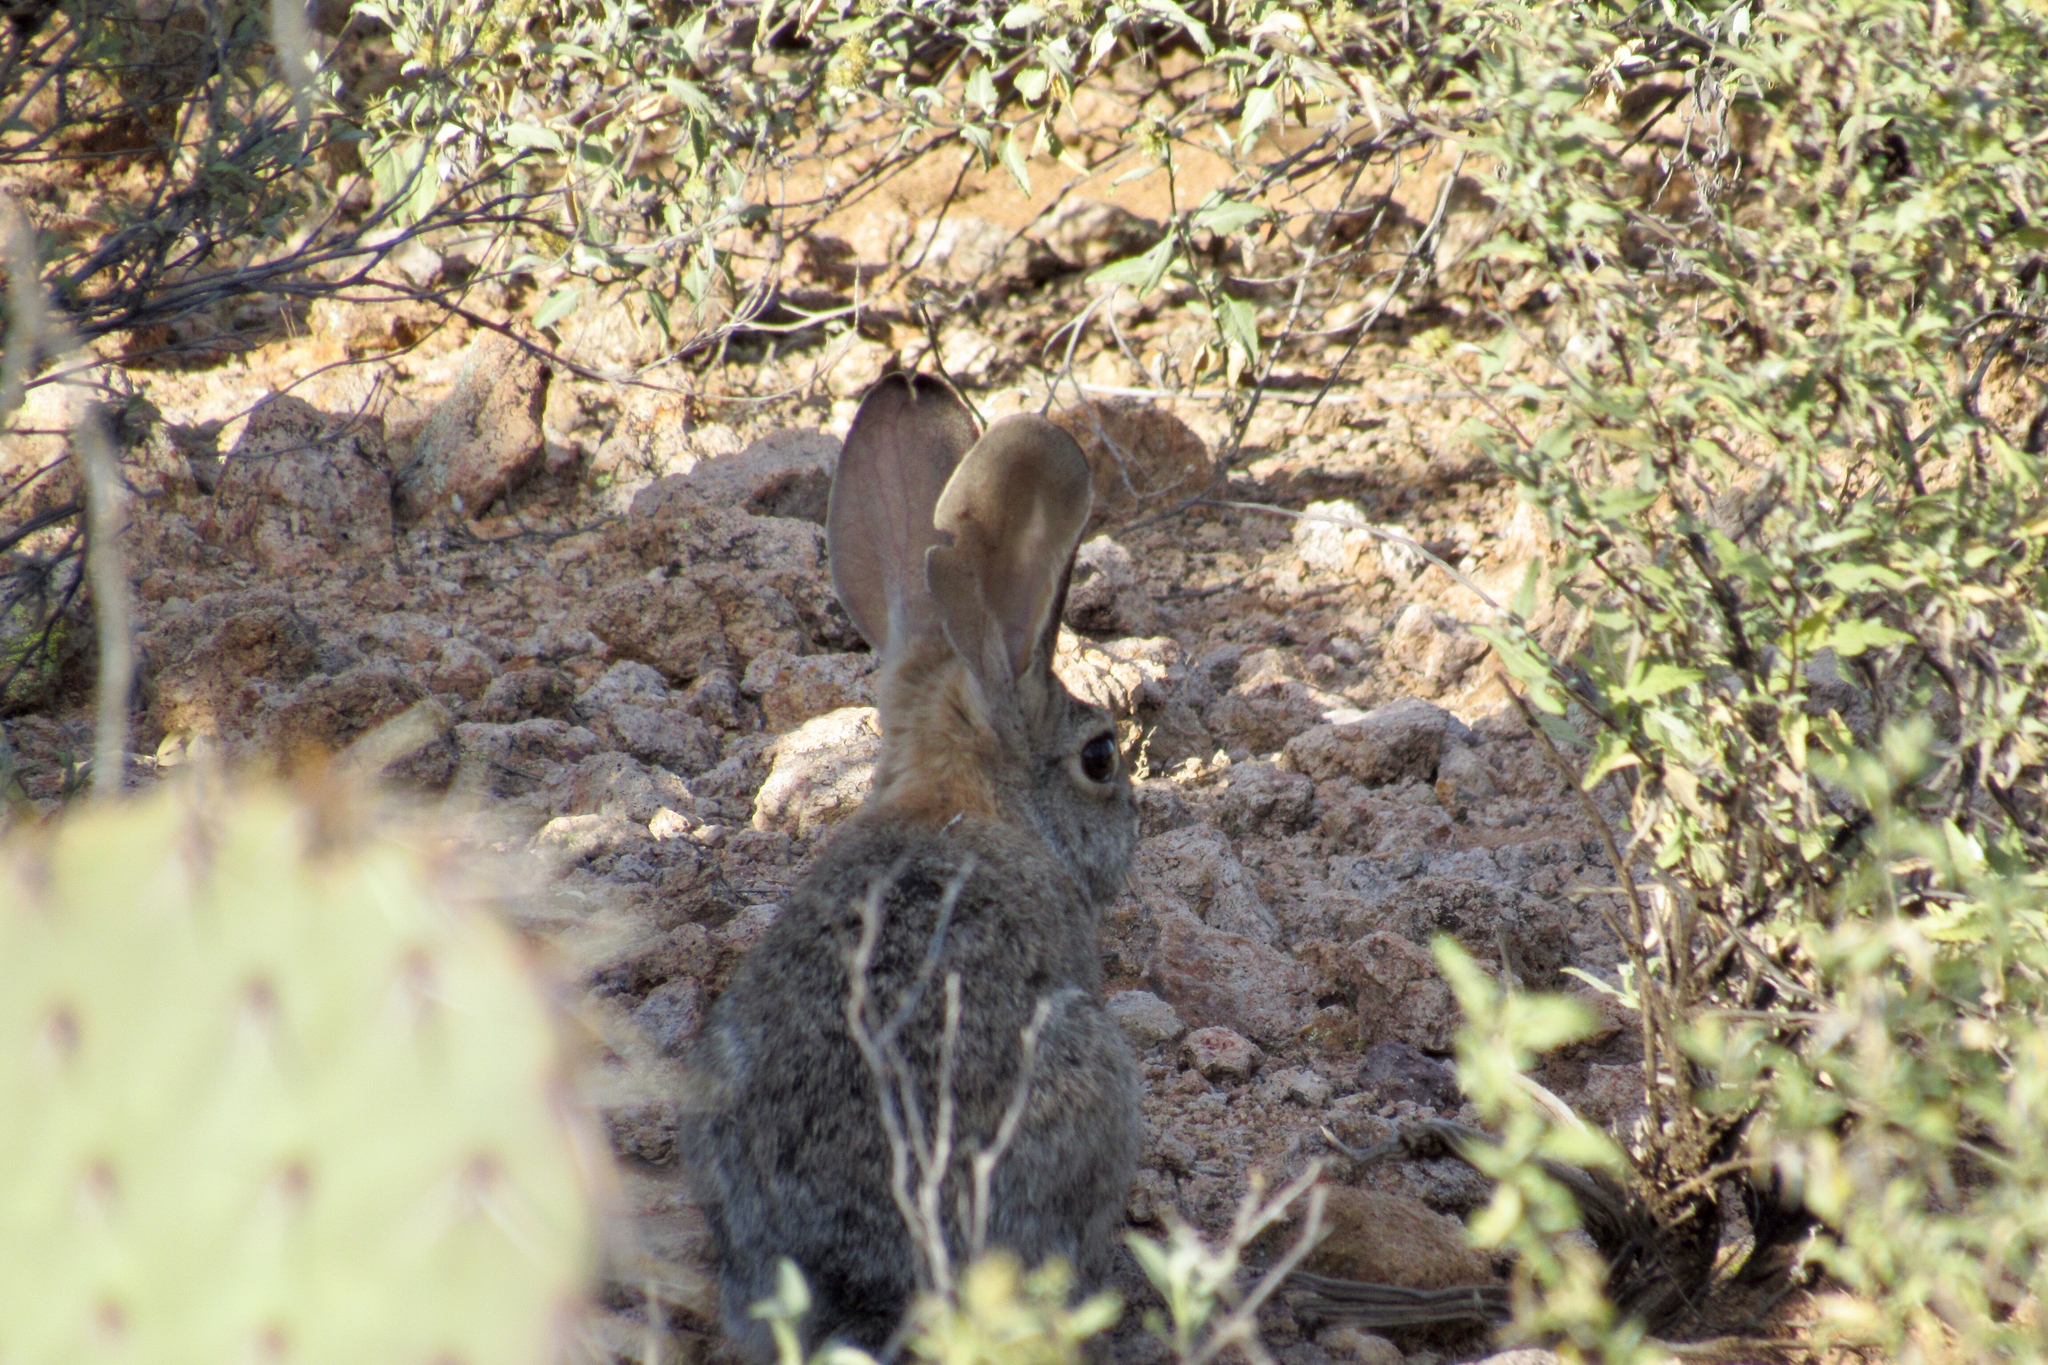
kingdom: Animalia
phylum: Chordata
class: Mammalia
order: Lagomorpha
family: Leporidae
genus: Sylvilagus
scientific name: Sylvilagus audubonii
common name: Desert cottontail
